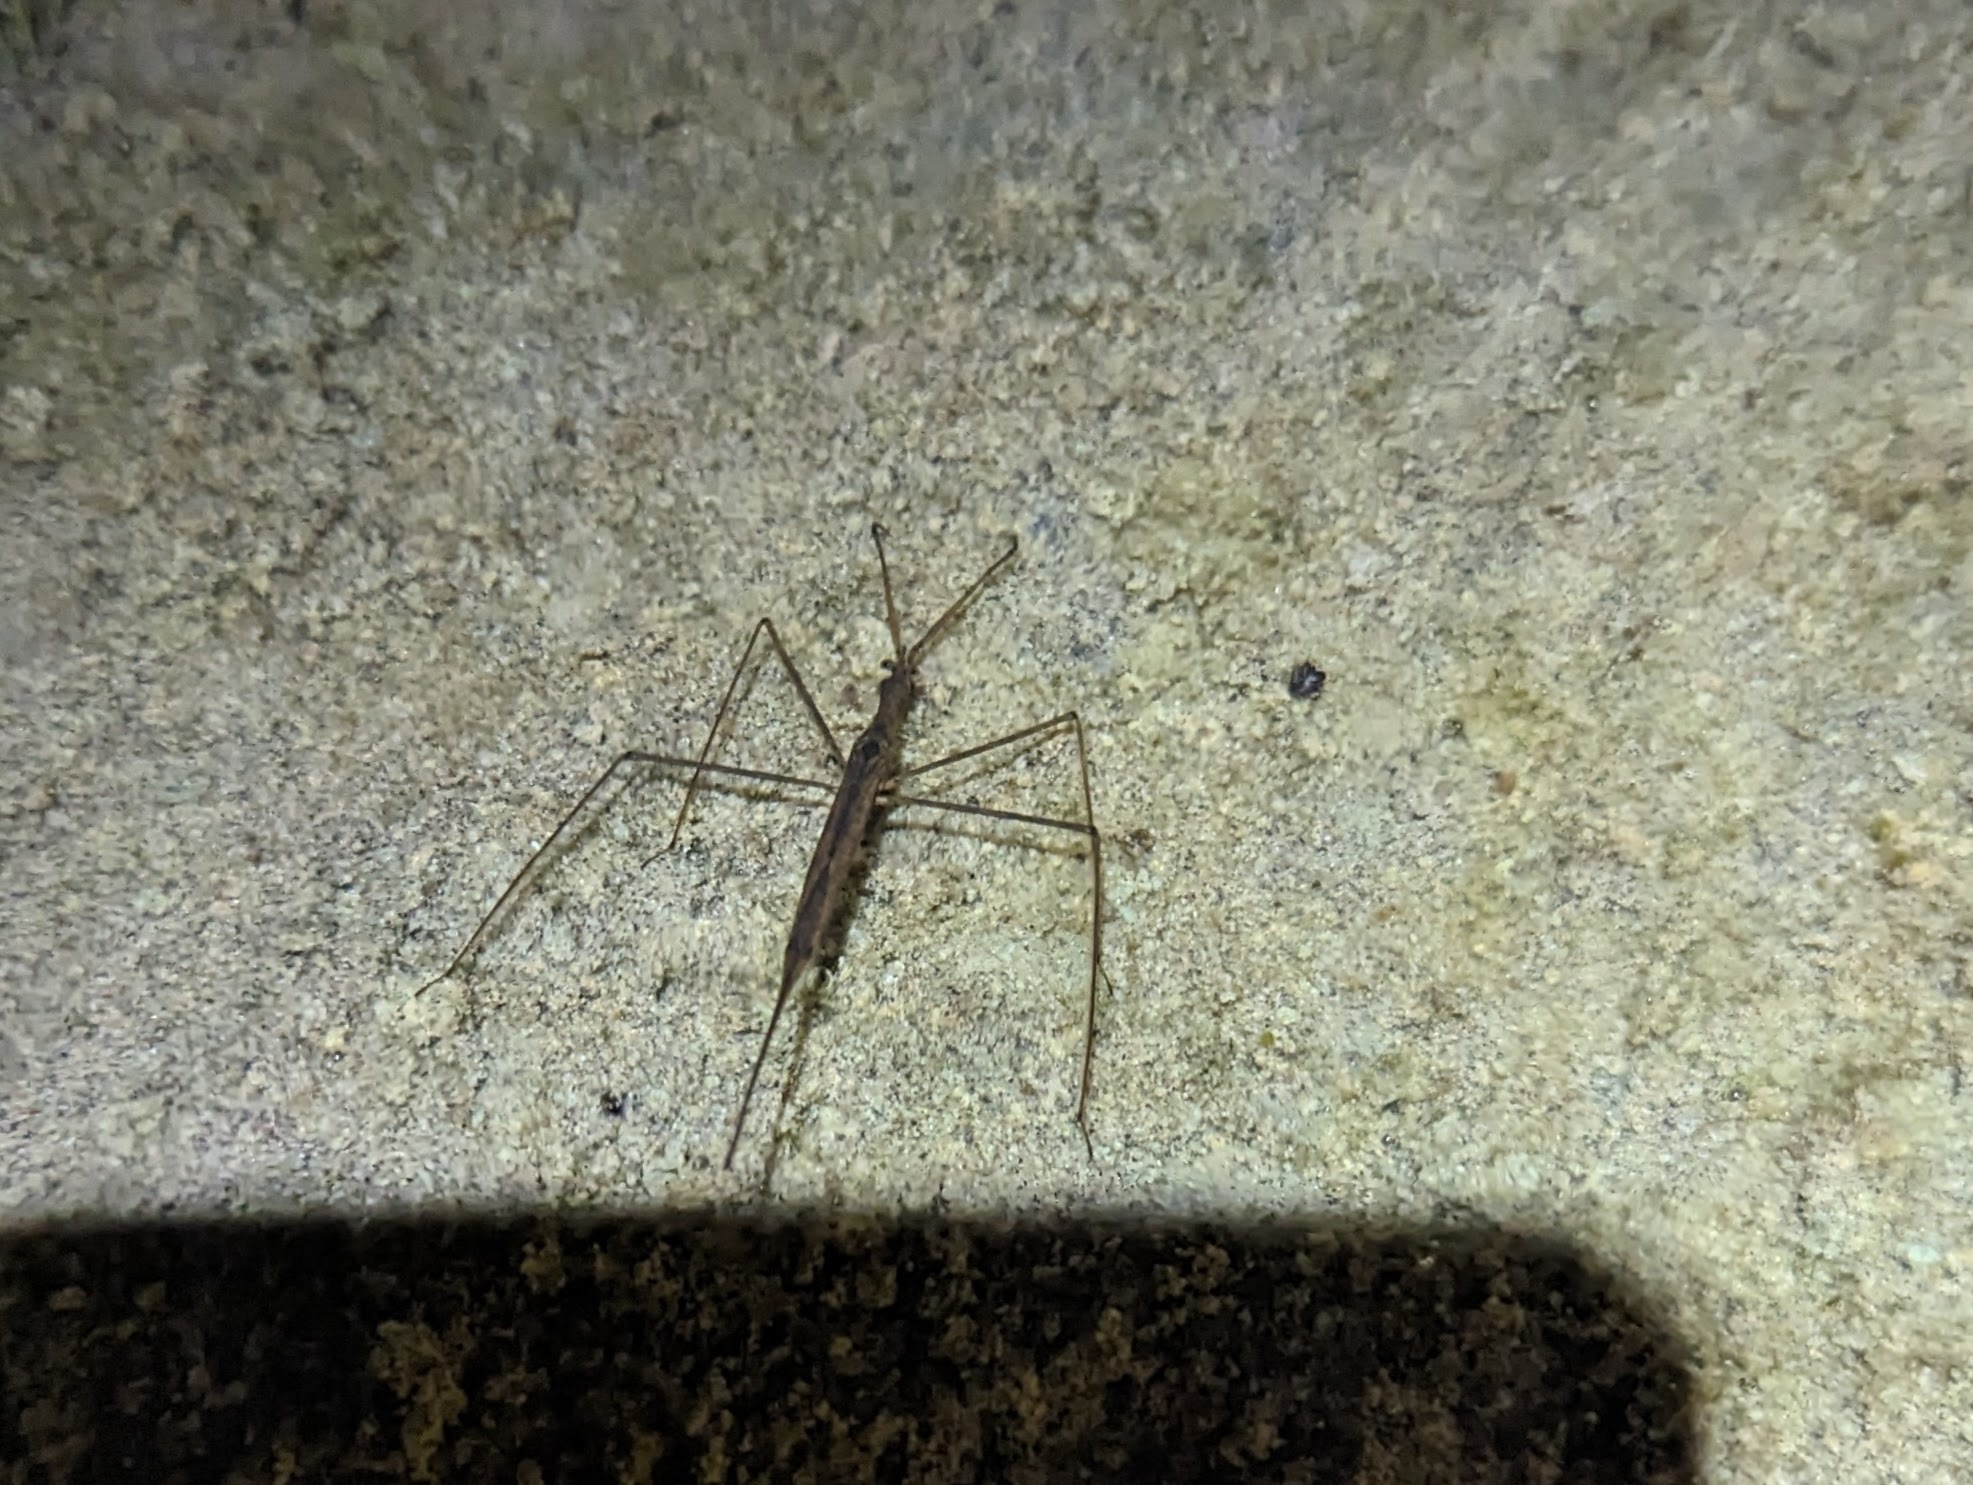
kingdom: Animalia
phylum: Arthropoda
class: Insecta
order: Hemiptera
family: Nepidae
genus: Ranatra
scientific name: Ranatra
